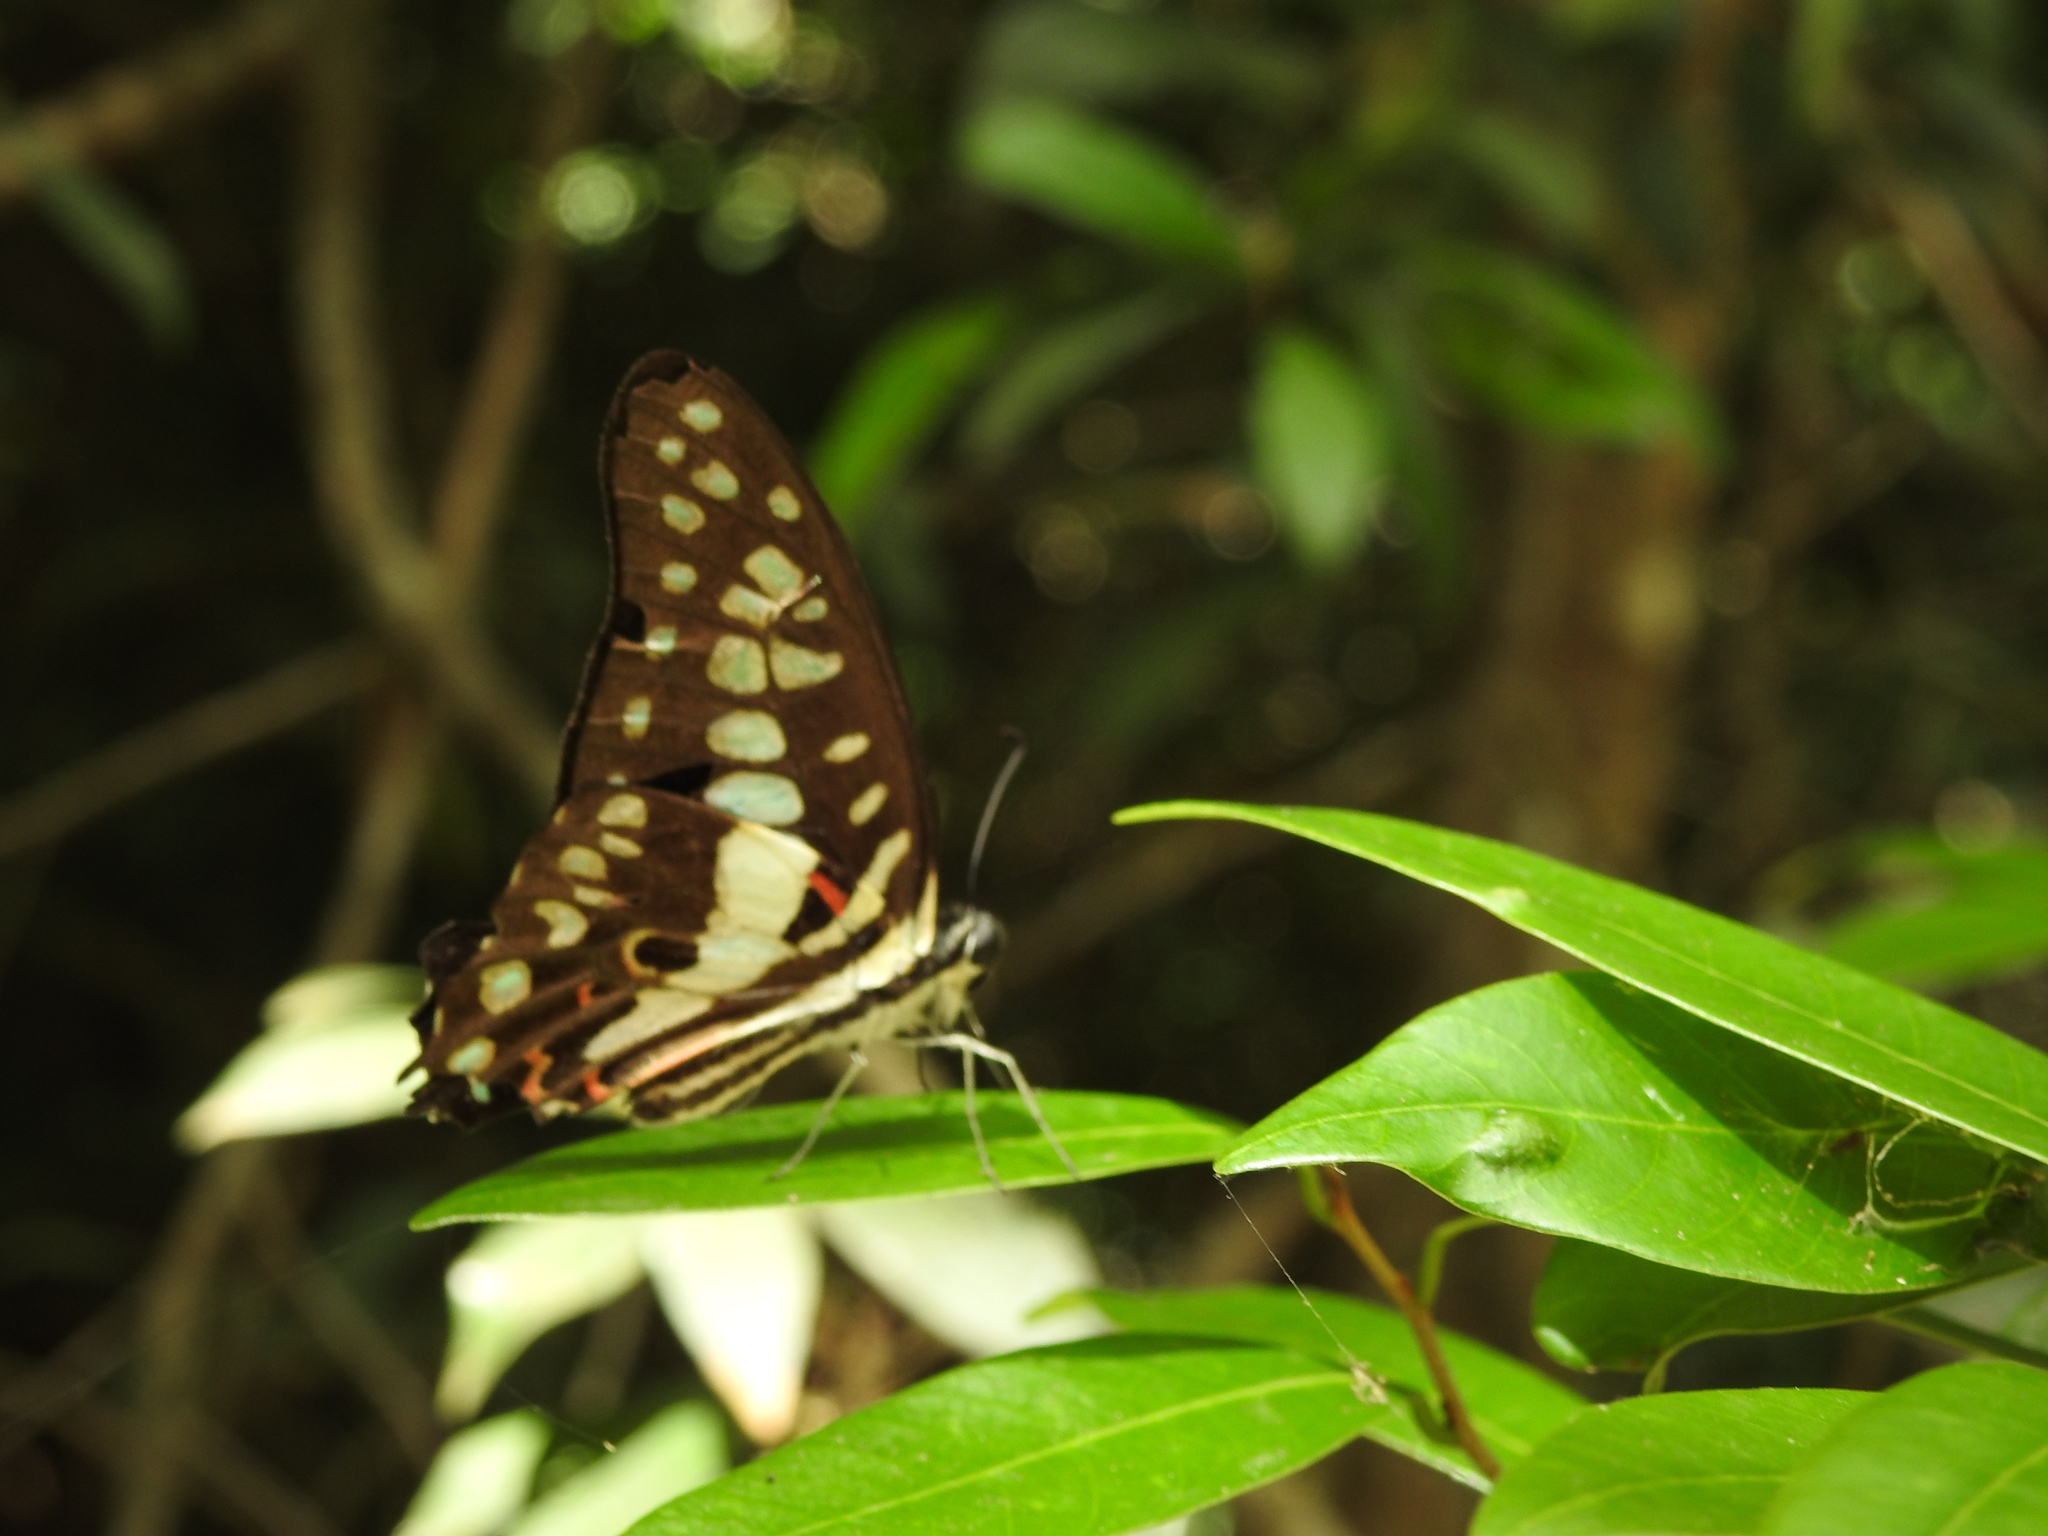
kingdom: Animalia
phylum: Arthropoda
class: Insecta
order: Lepidoptera
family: Papilionidae
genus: Graphium
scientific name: Graphium doson
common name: Common jay
